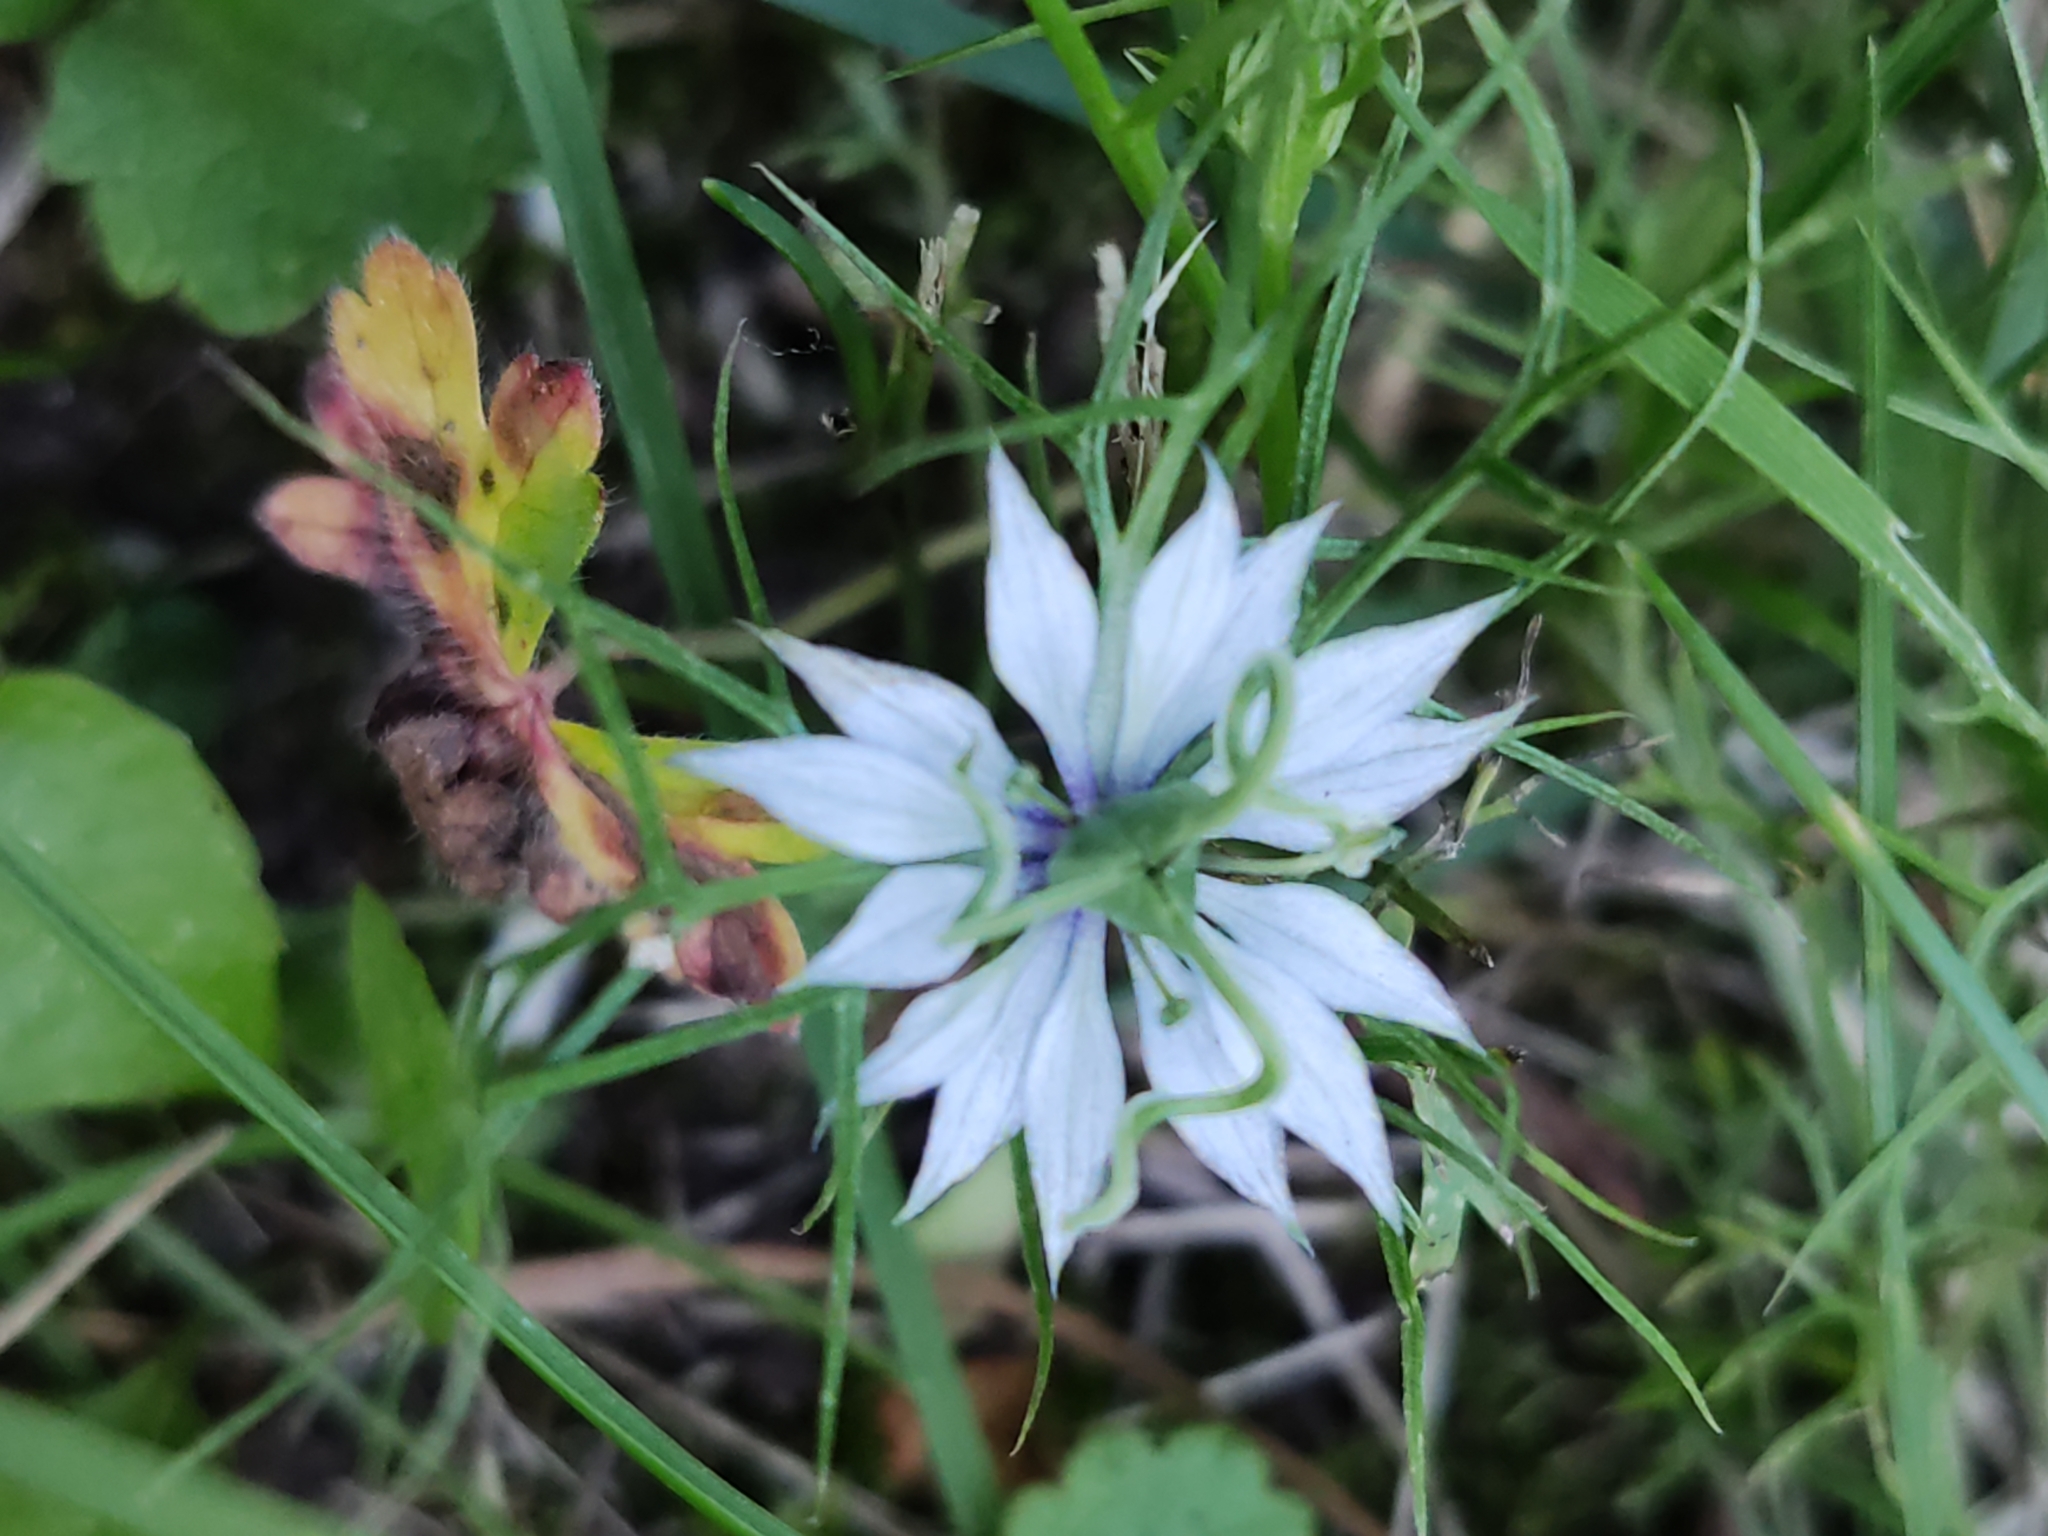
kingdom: Plantae
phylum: Tracheophyta
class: Magnoliopsida
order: Ranunculales
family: Ranunculaceae
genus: Nigella
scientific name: Nigella damascena
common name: Love-in-a-mist
